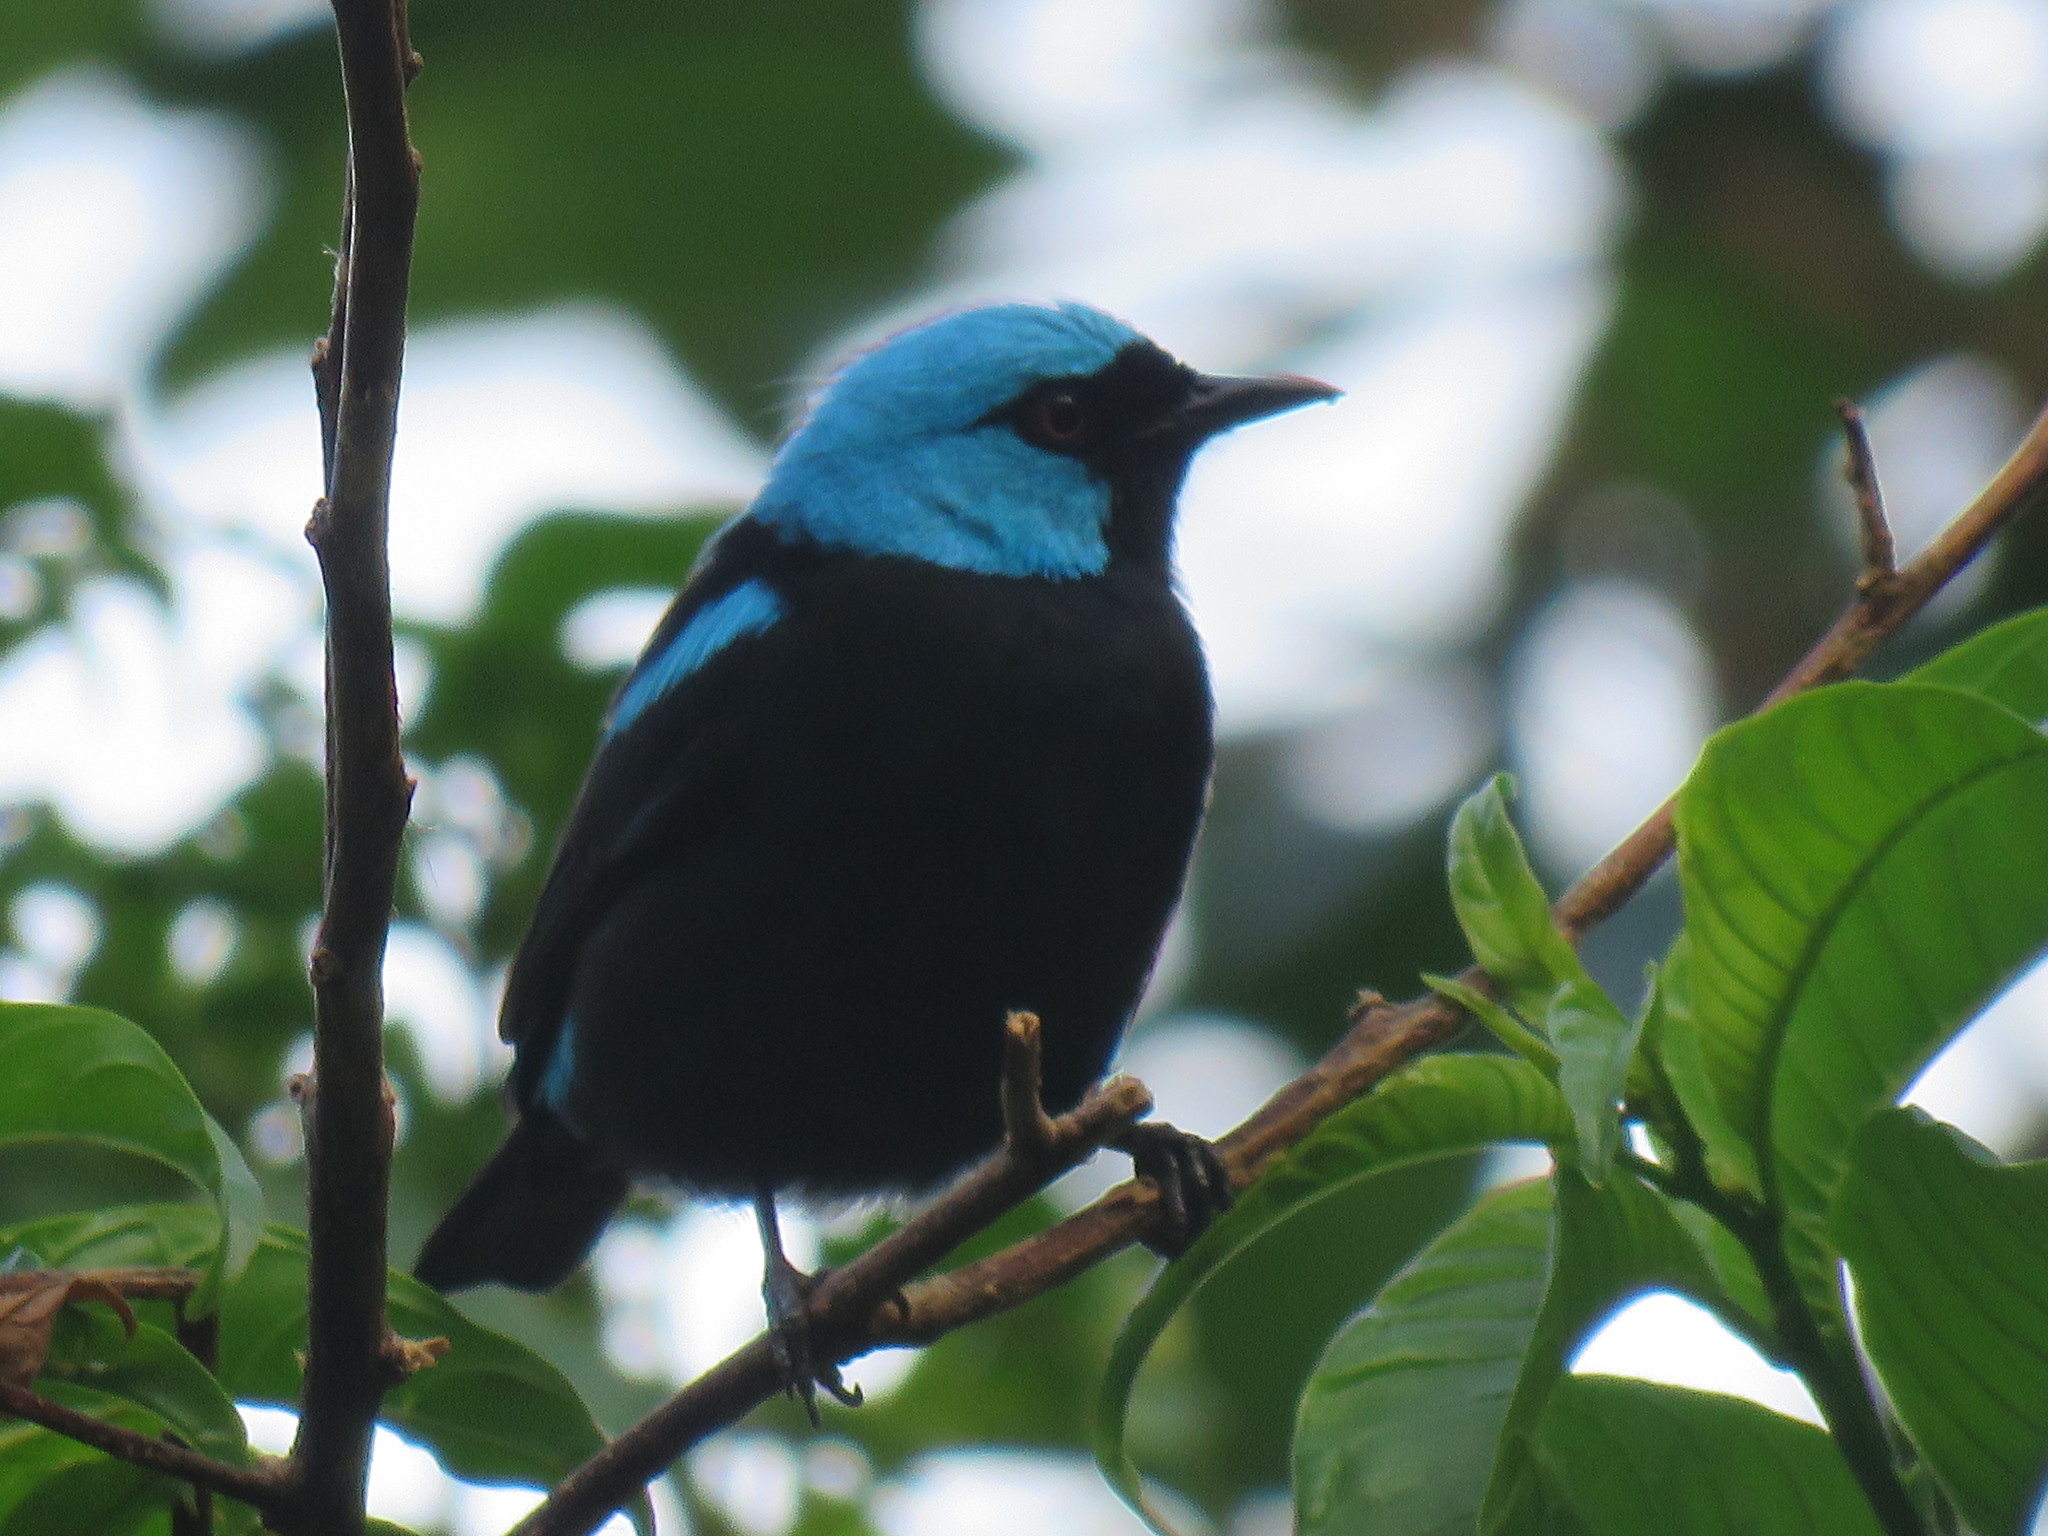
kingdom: Animalia
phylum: Chordata
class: Aves
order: Passeriformes
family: Thraupidae
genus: Dacnis
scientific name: Dacnis venusta
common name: Scarlet-thighed dacnis
